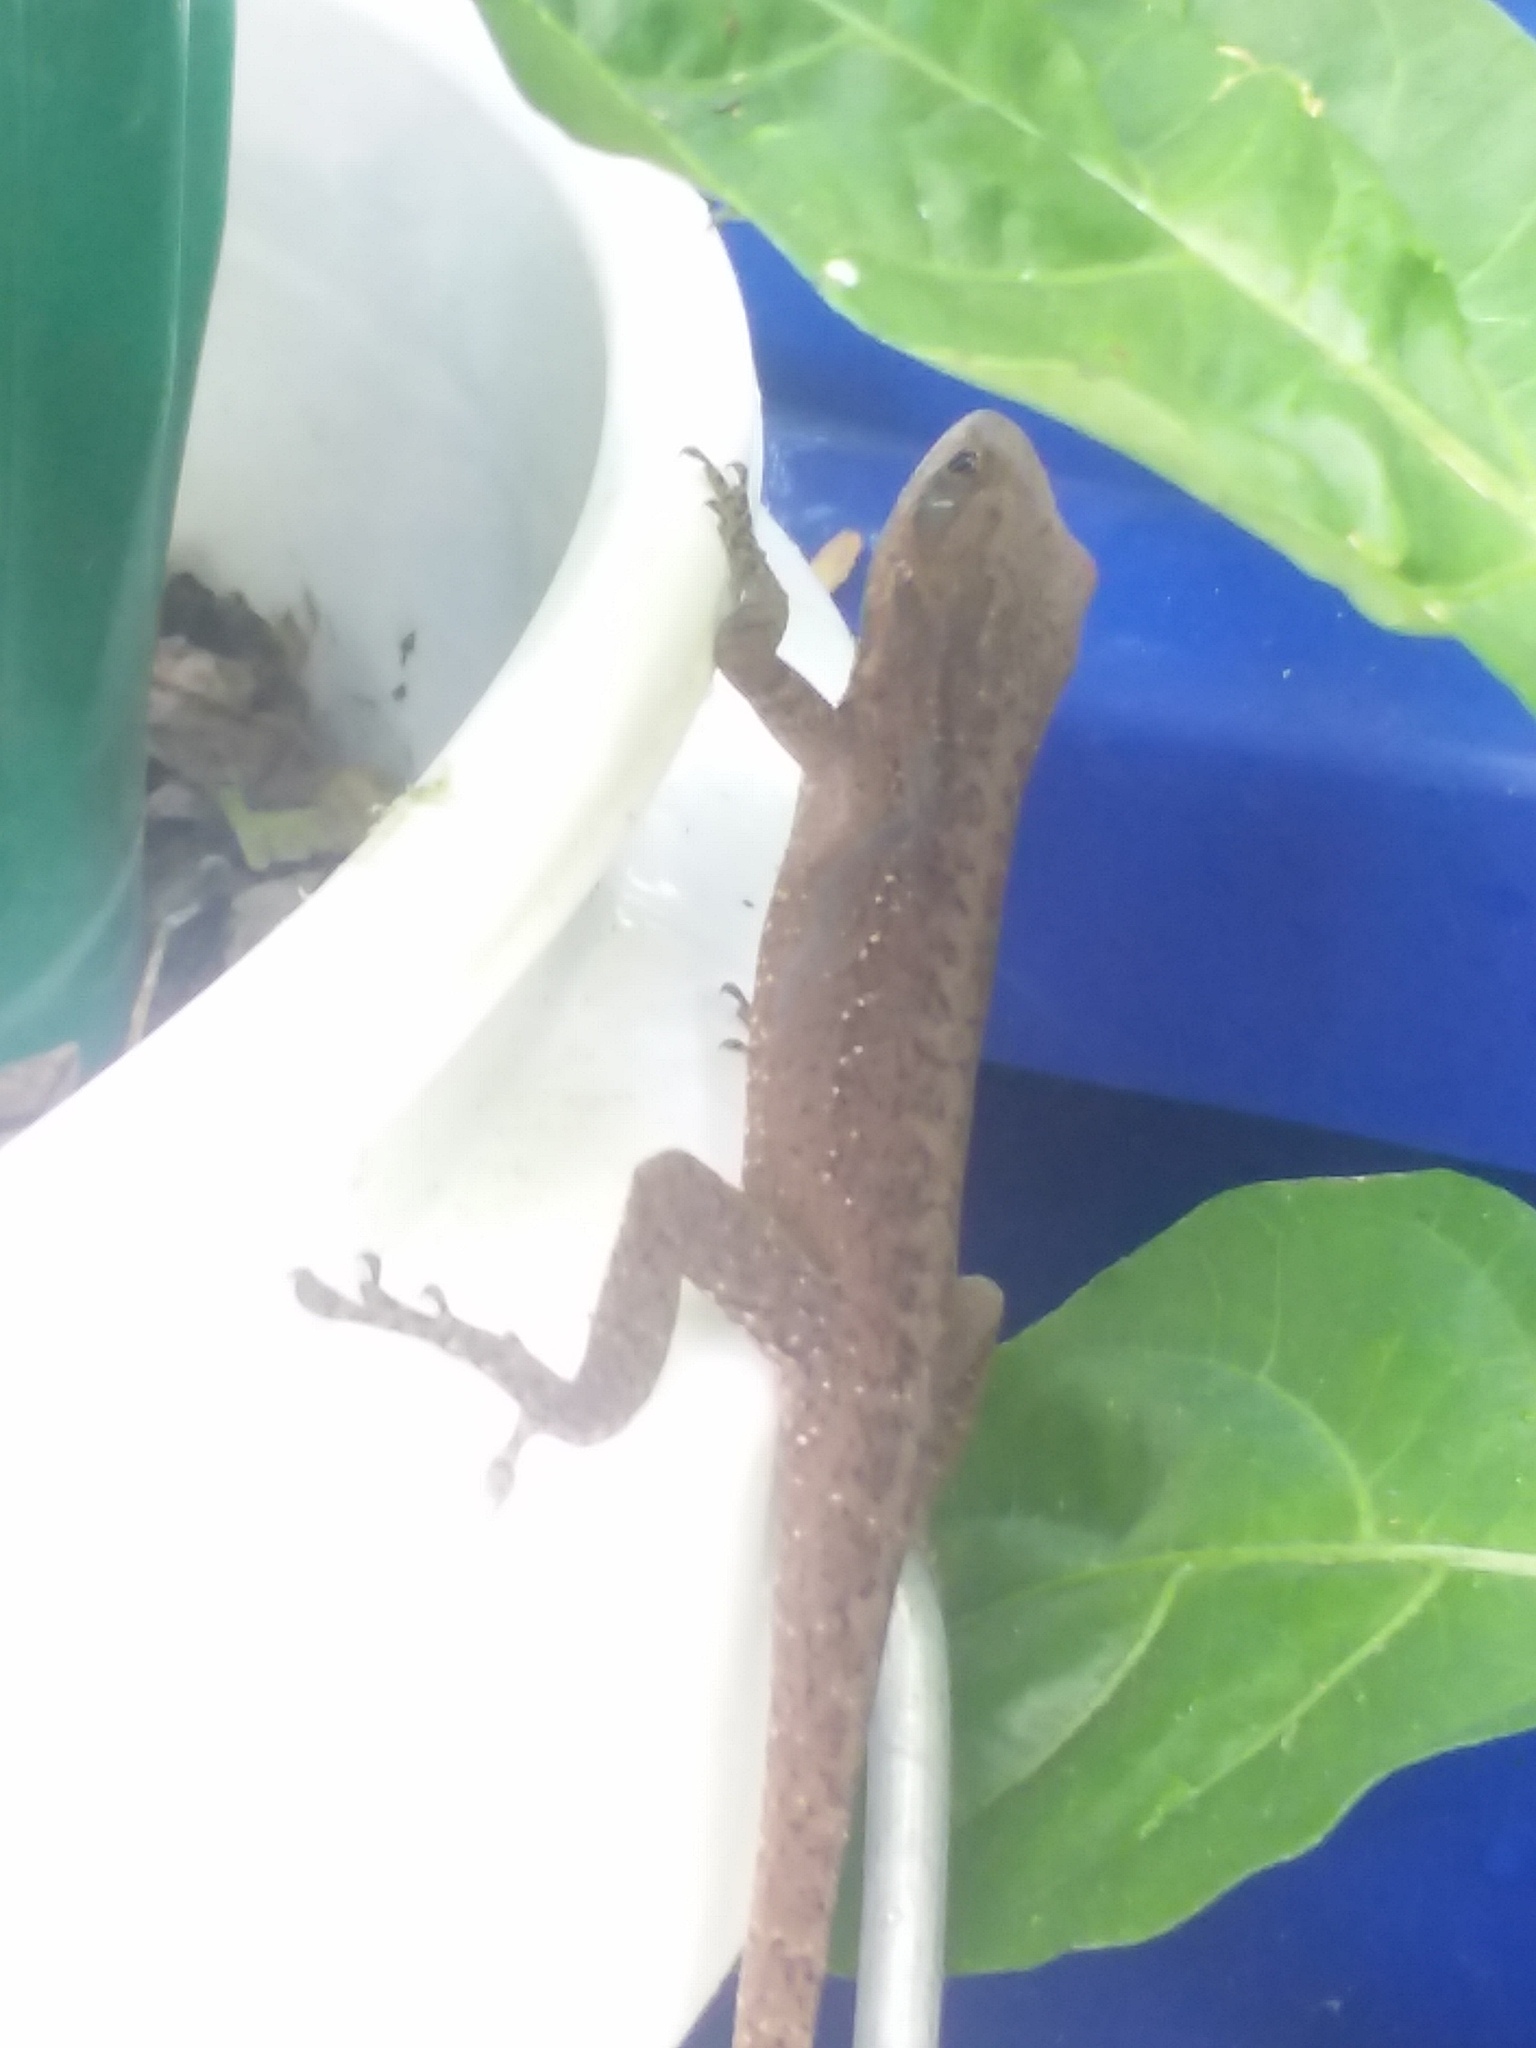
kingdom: Animalia
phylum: Chordata
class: Squamata
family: Dactyloidae
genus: Anolis
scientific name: Anolis carolinensis
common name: Green anole
